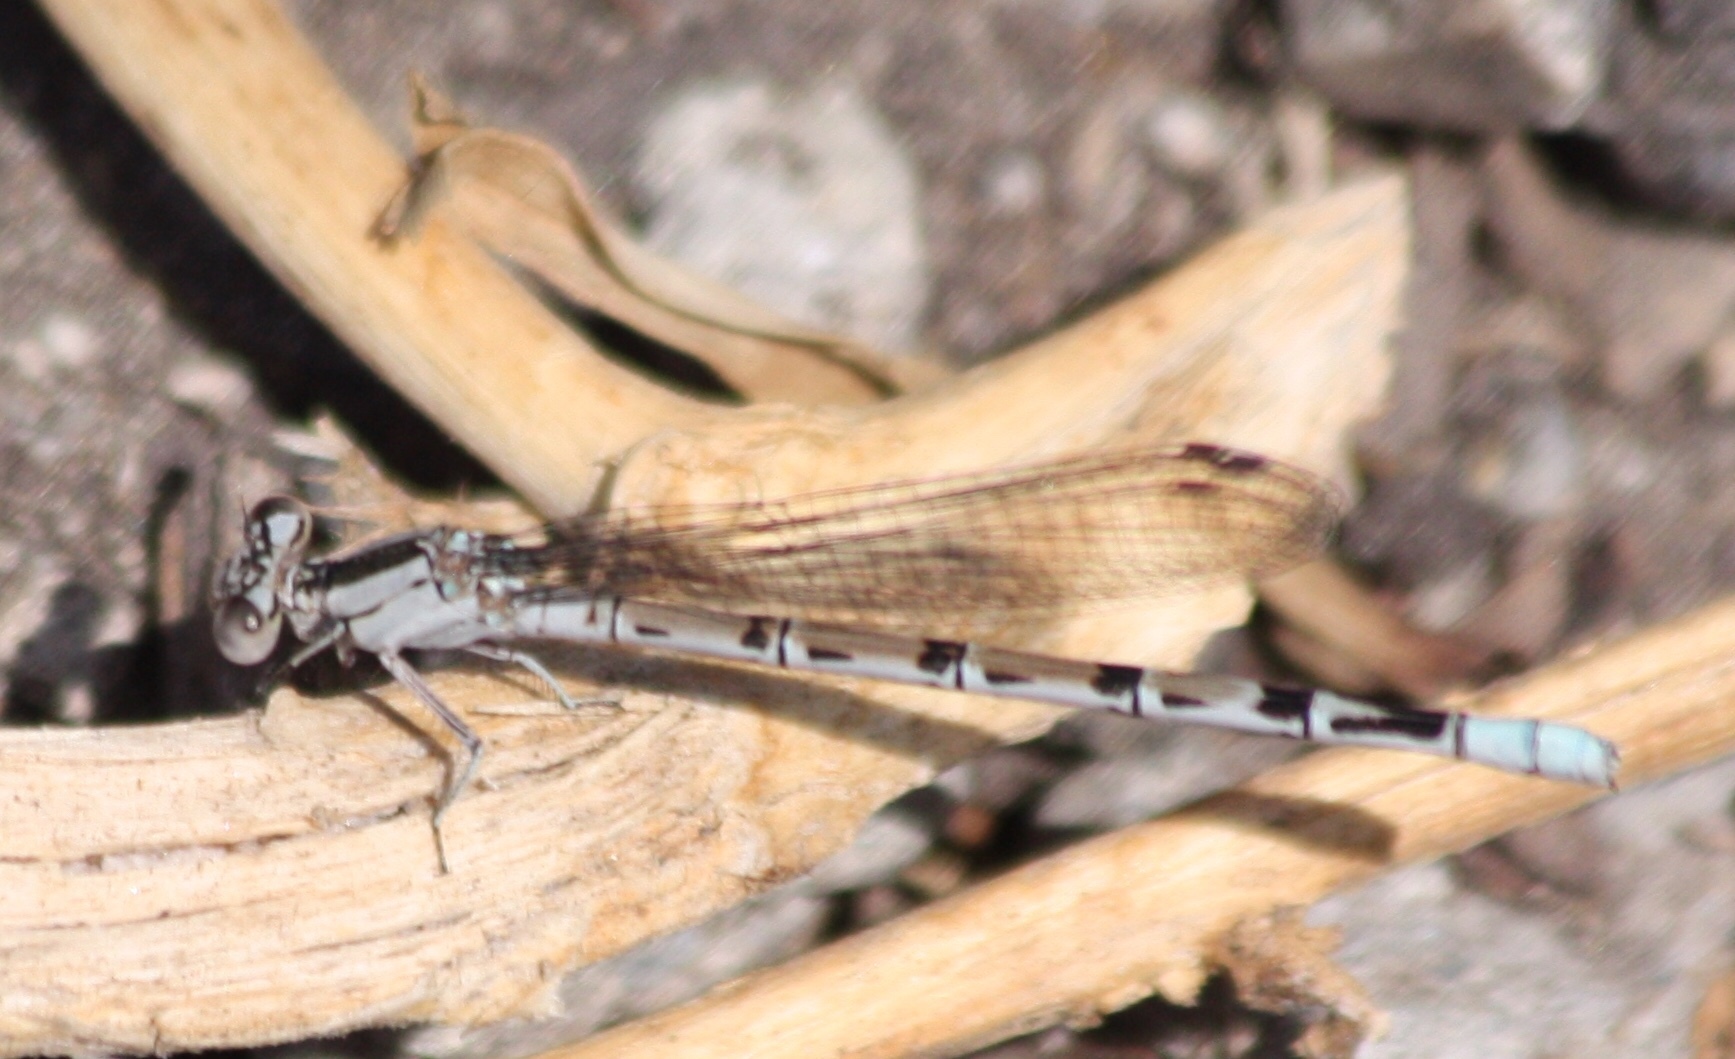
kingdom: Animalia
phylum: Arthropoda
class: Insecta
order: Odonata
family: Coenagrionidae
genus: Argia
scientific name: Argia vivida
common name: Vivid dancer
